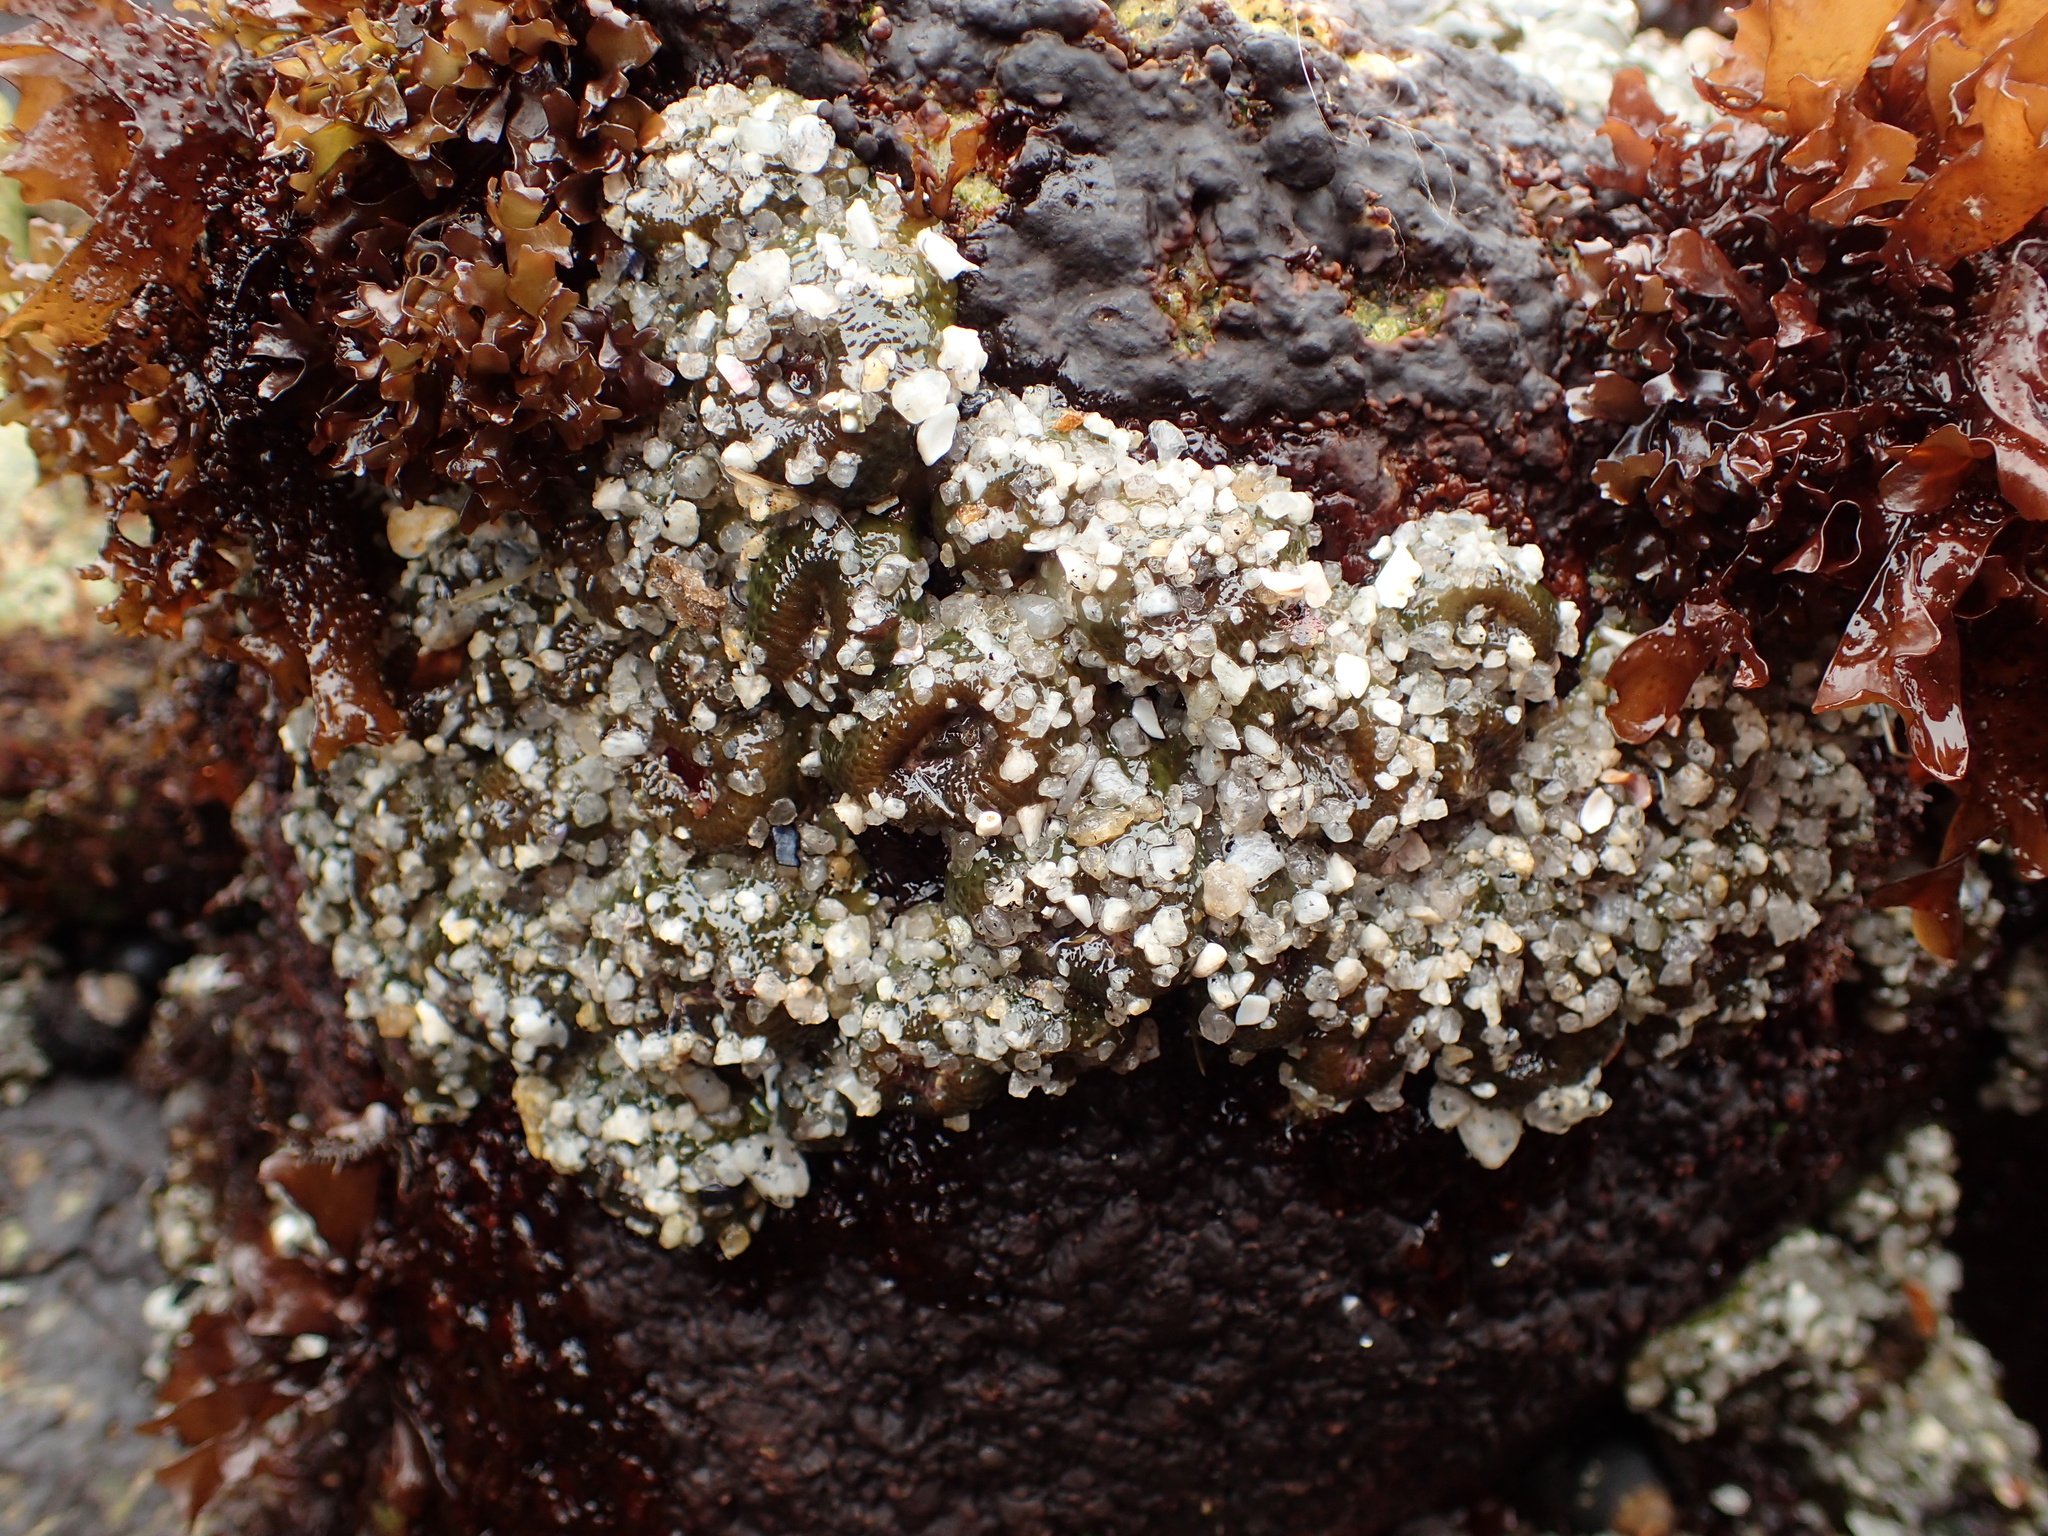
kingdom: Animalia
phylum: Cnidaria
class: Anthozoa
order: Actiniaria
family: Actiniidae
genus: Anthopleura
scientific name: Anthopleura elegantissima
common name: Clonal anemone
